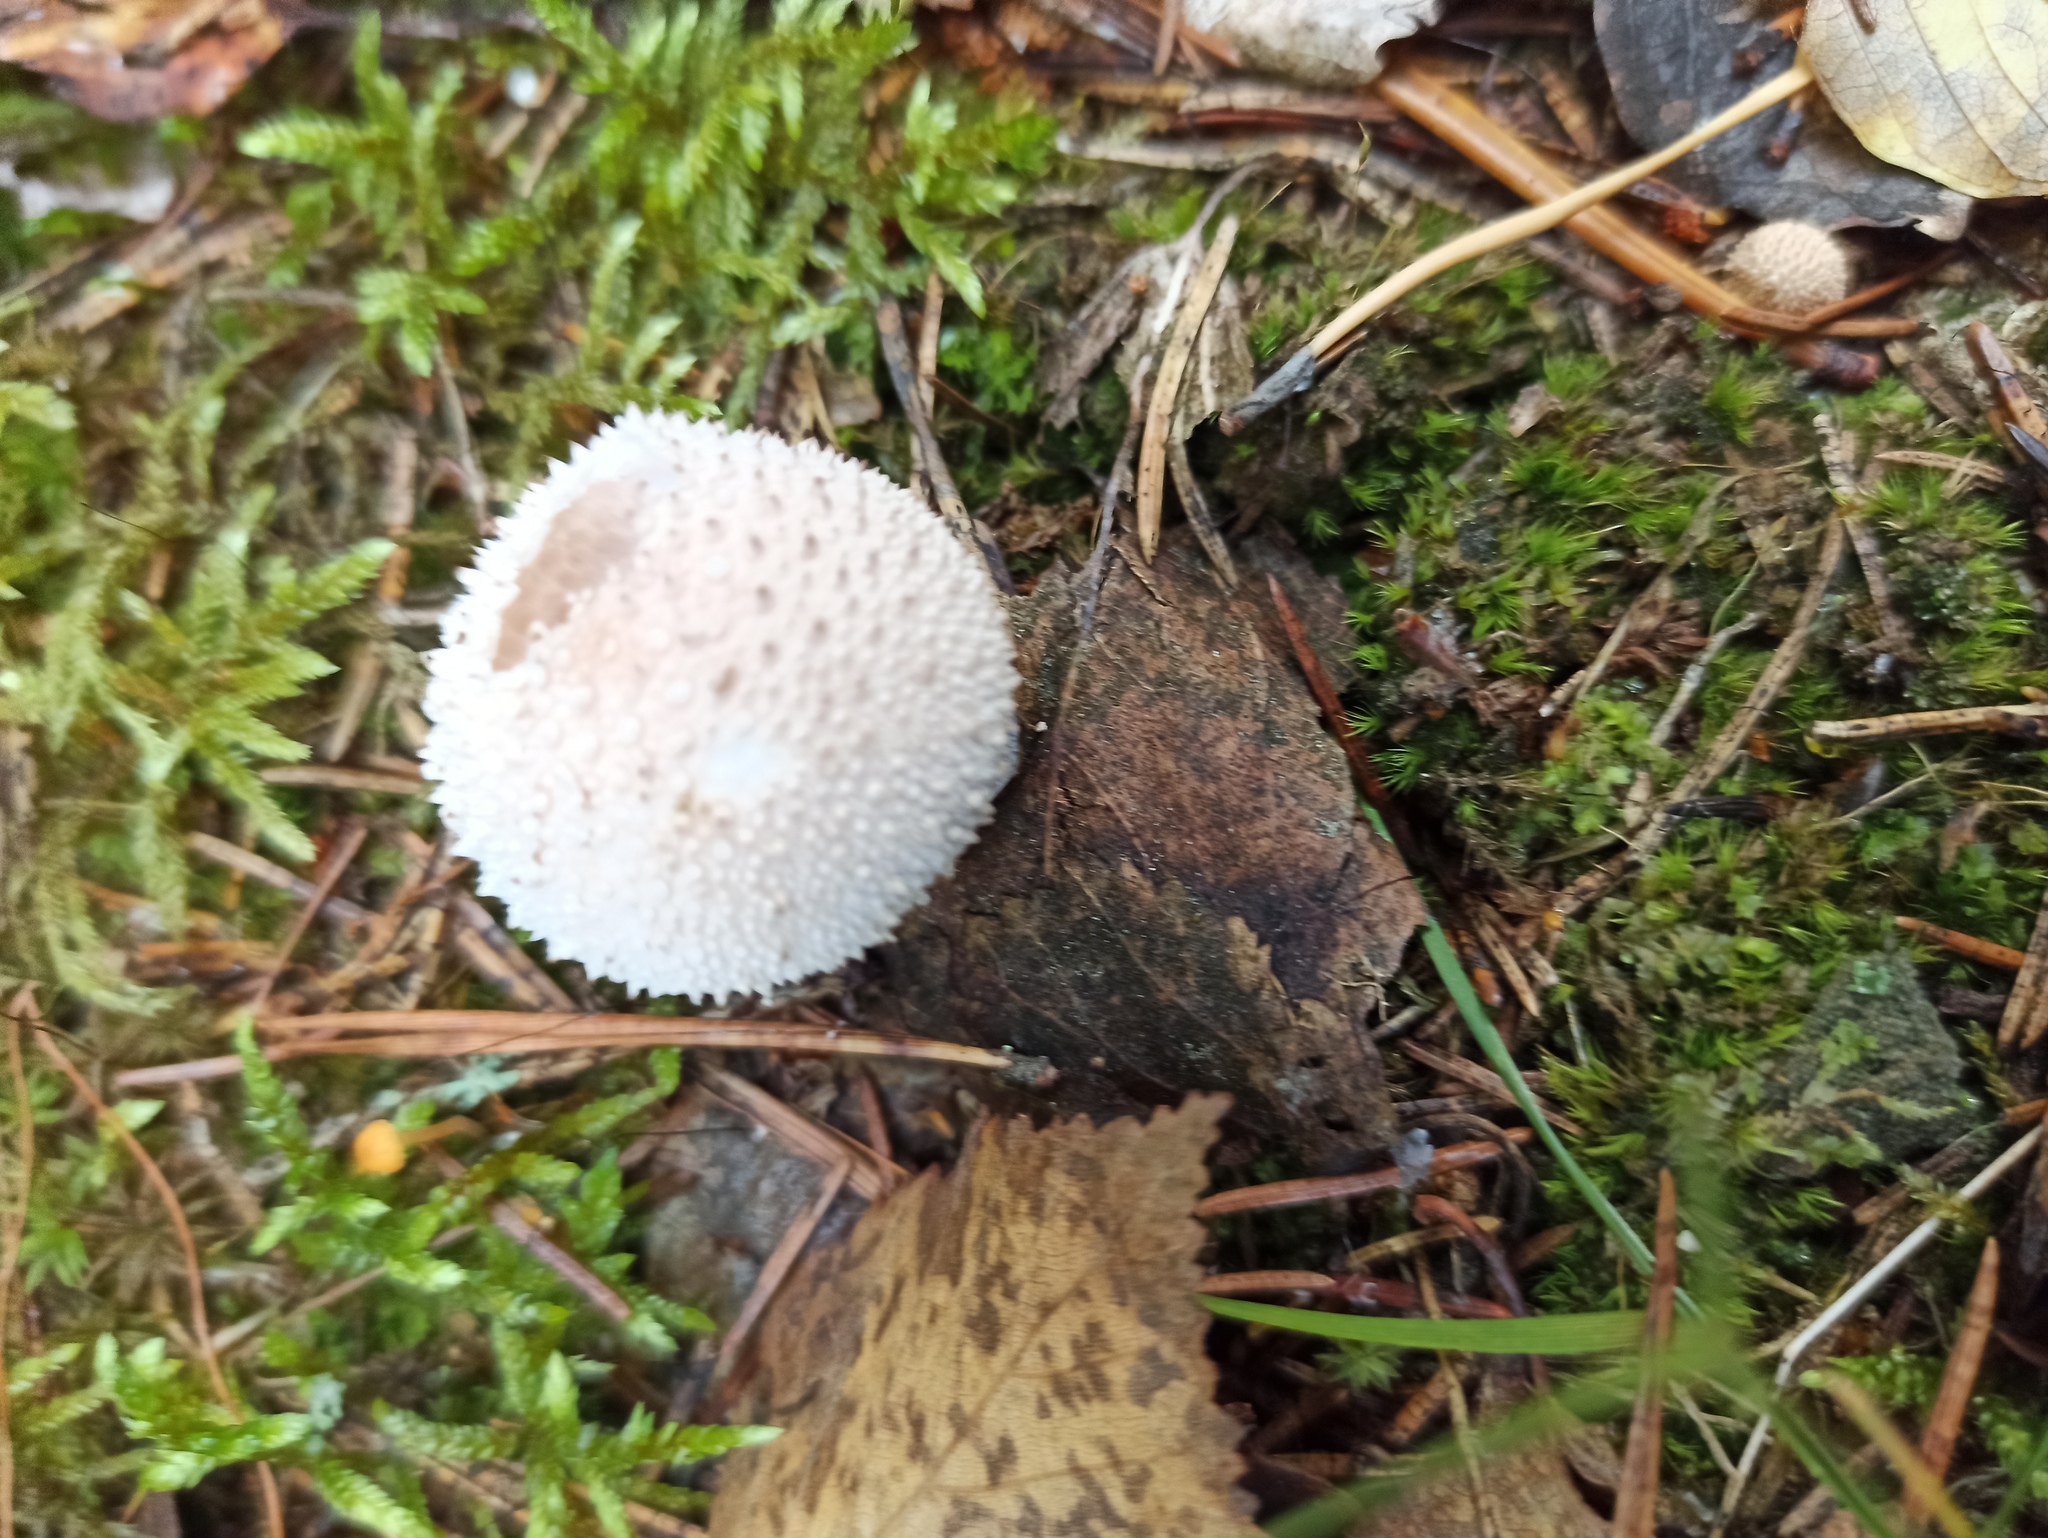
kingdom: Fungi
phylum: Basidiomycota
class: Agaricomycetes
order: Agaricales
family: Lycoperdaceae
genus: Lycoperdon
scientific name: Lycoperdon perlatum
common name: Common puffball
